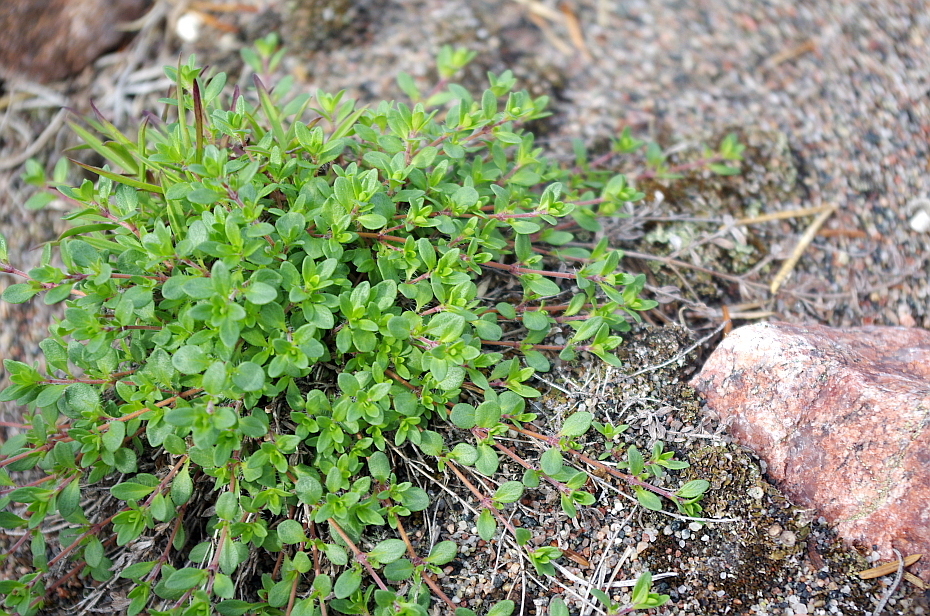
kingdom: Plantae
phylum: Tracheophyta
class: Magnoliopsida
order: Lamiales
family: Lamiaceae
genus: Thymus
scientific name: Thymus serpyllum
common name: Breckland thyme
